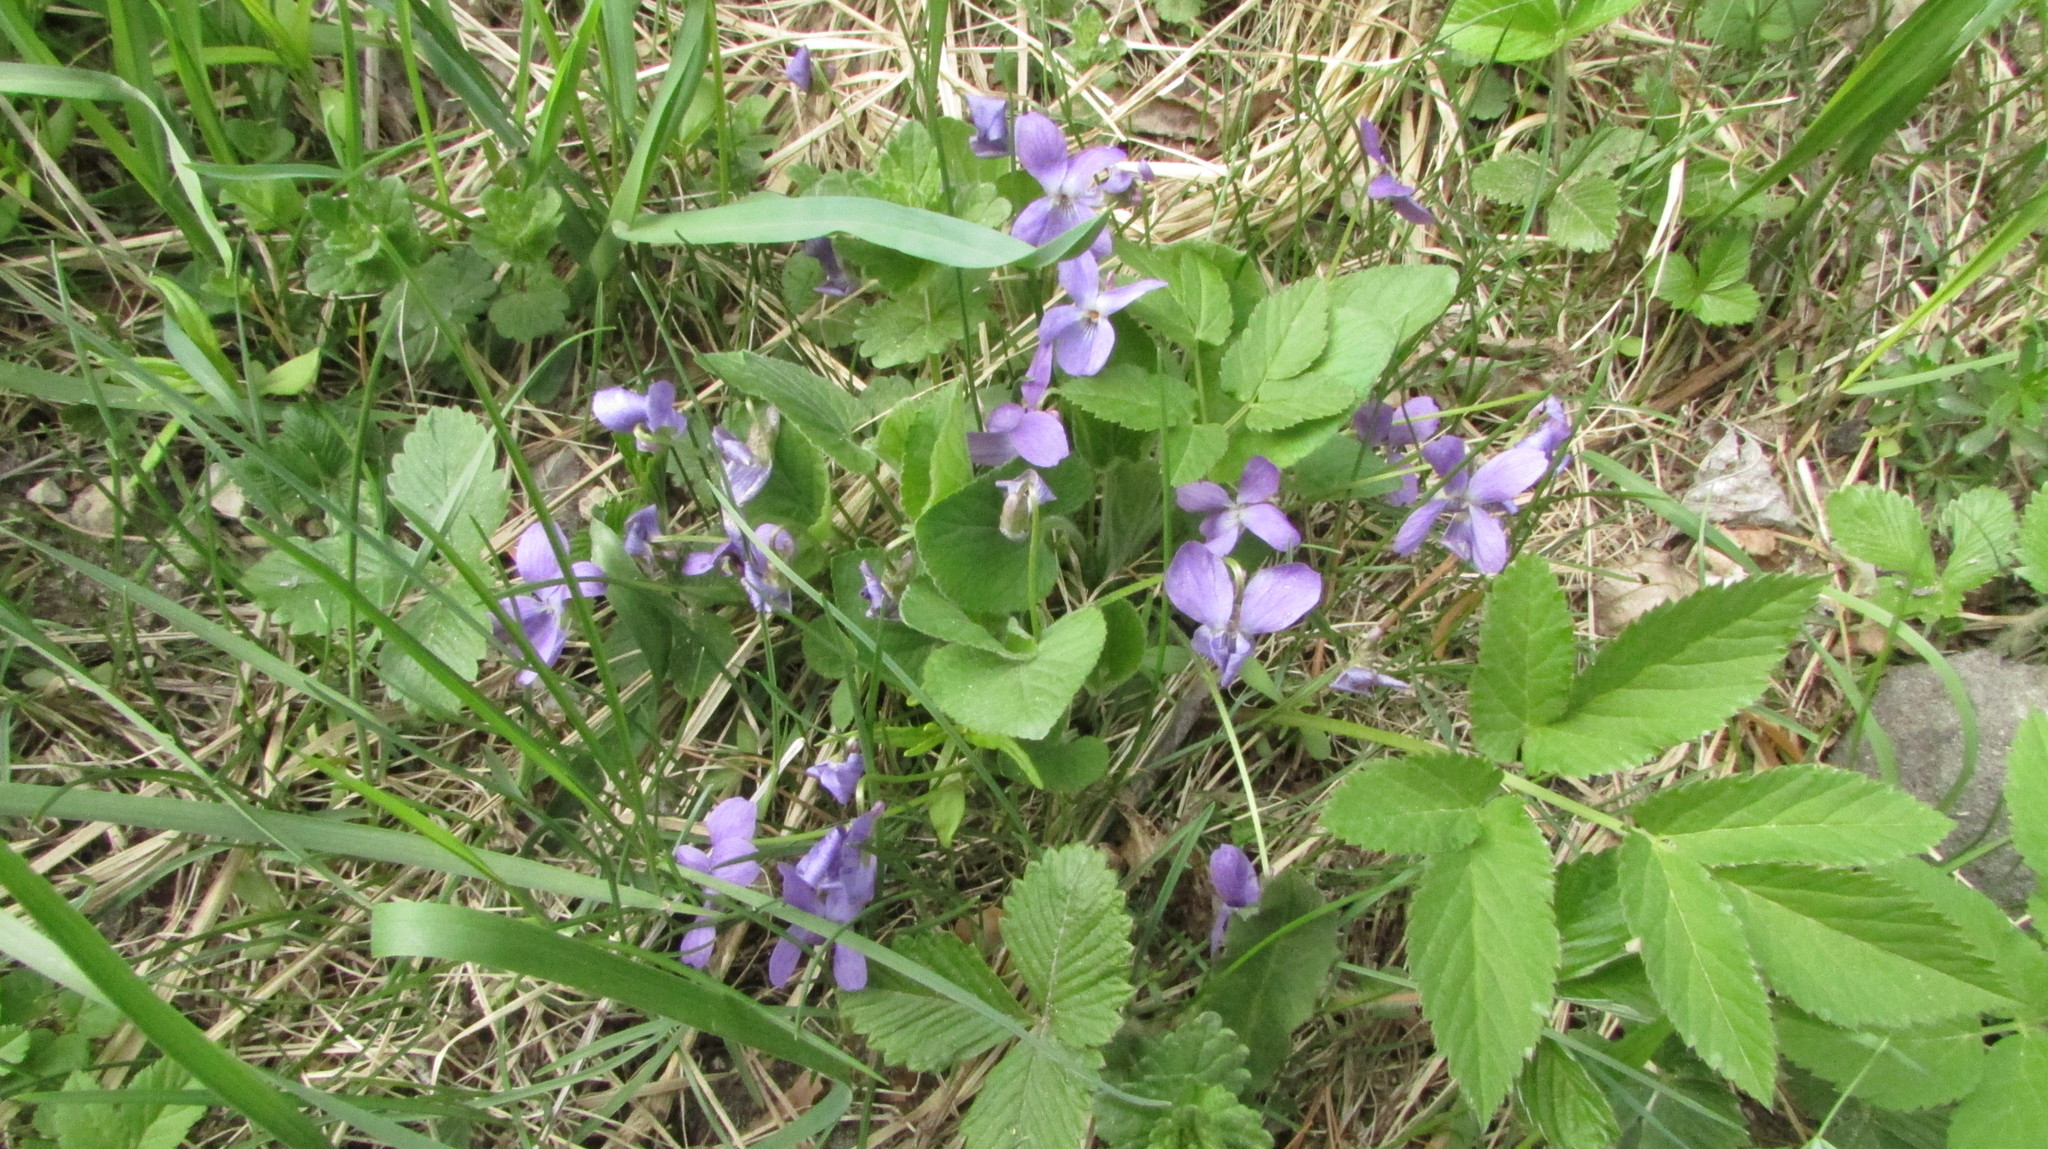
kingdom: Plantae
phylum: Tracheophyta
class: Magnoliopsida
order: Malpighiales
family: Violaceae
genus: Viola
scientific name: Viola hirta
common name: Hairy violet
